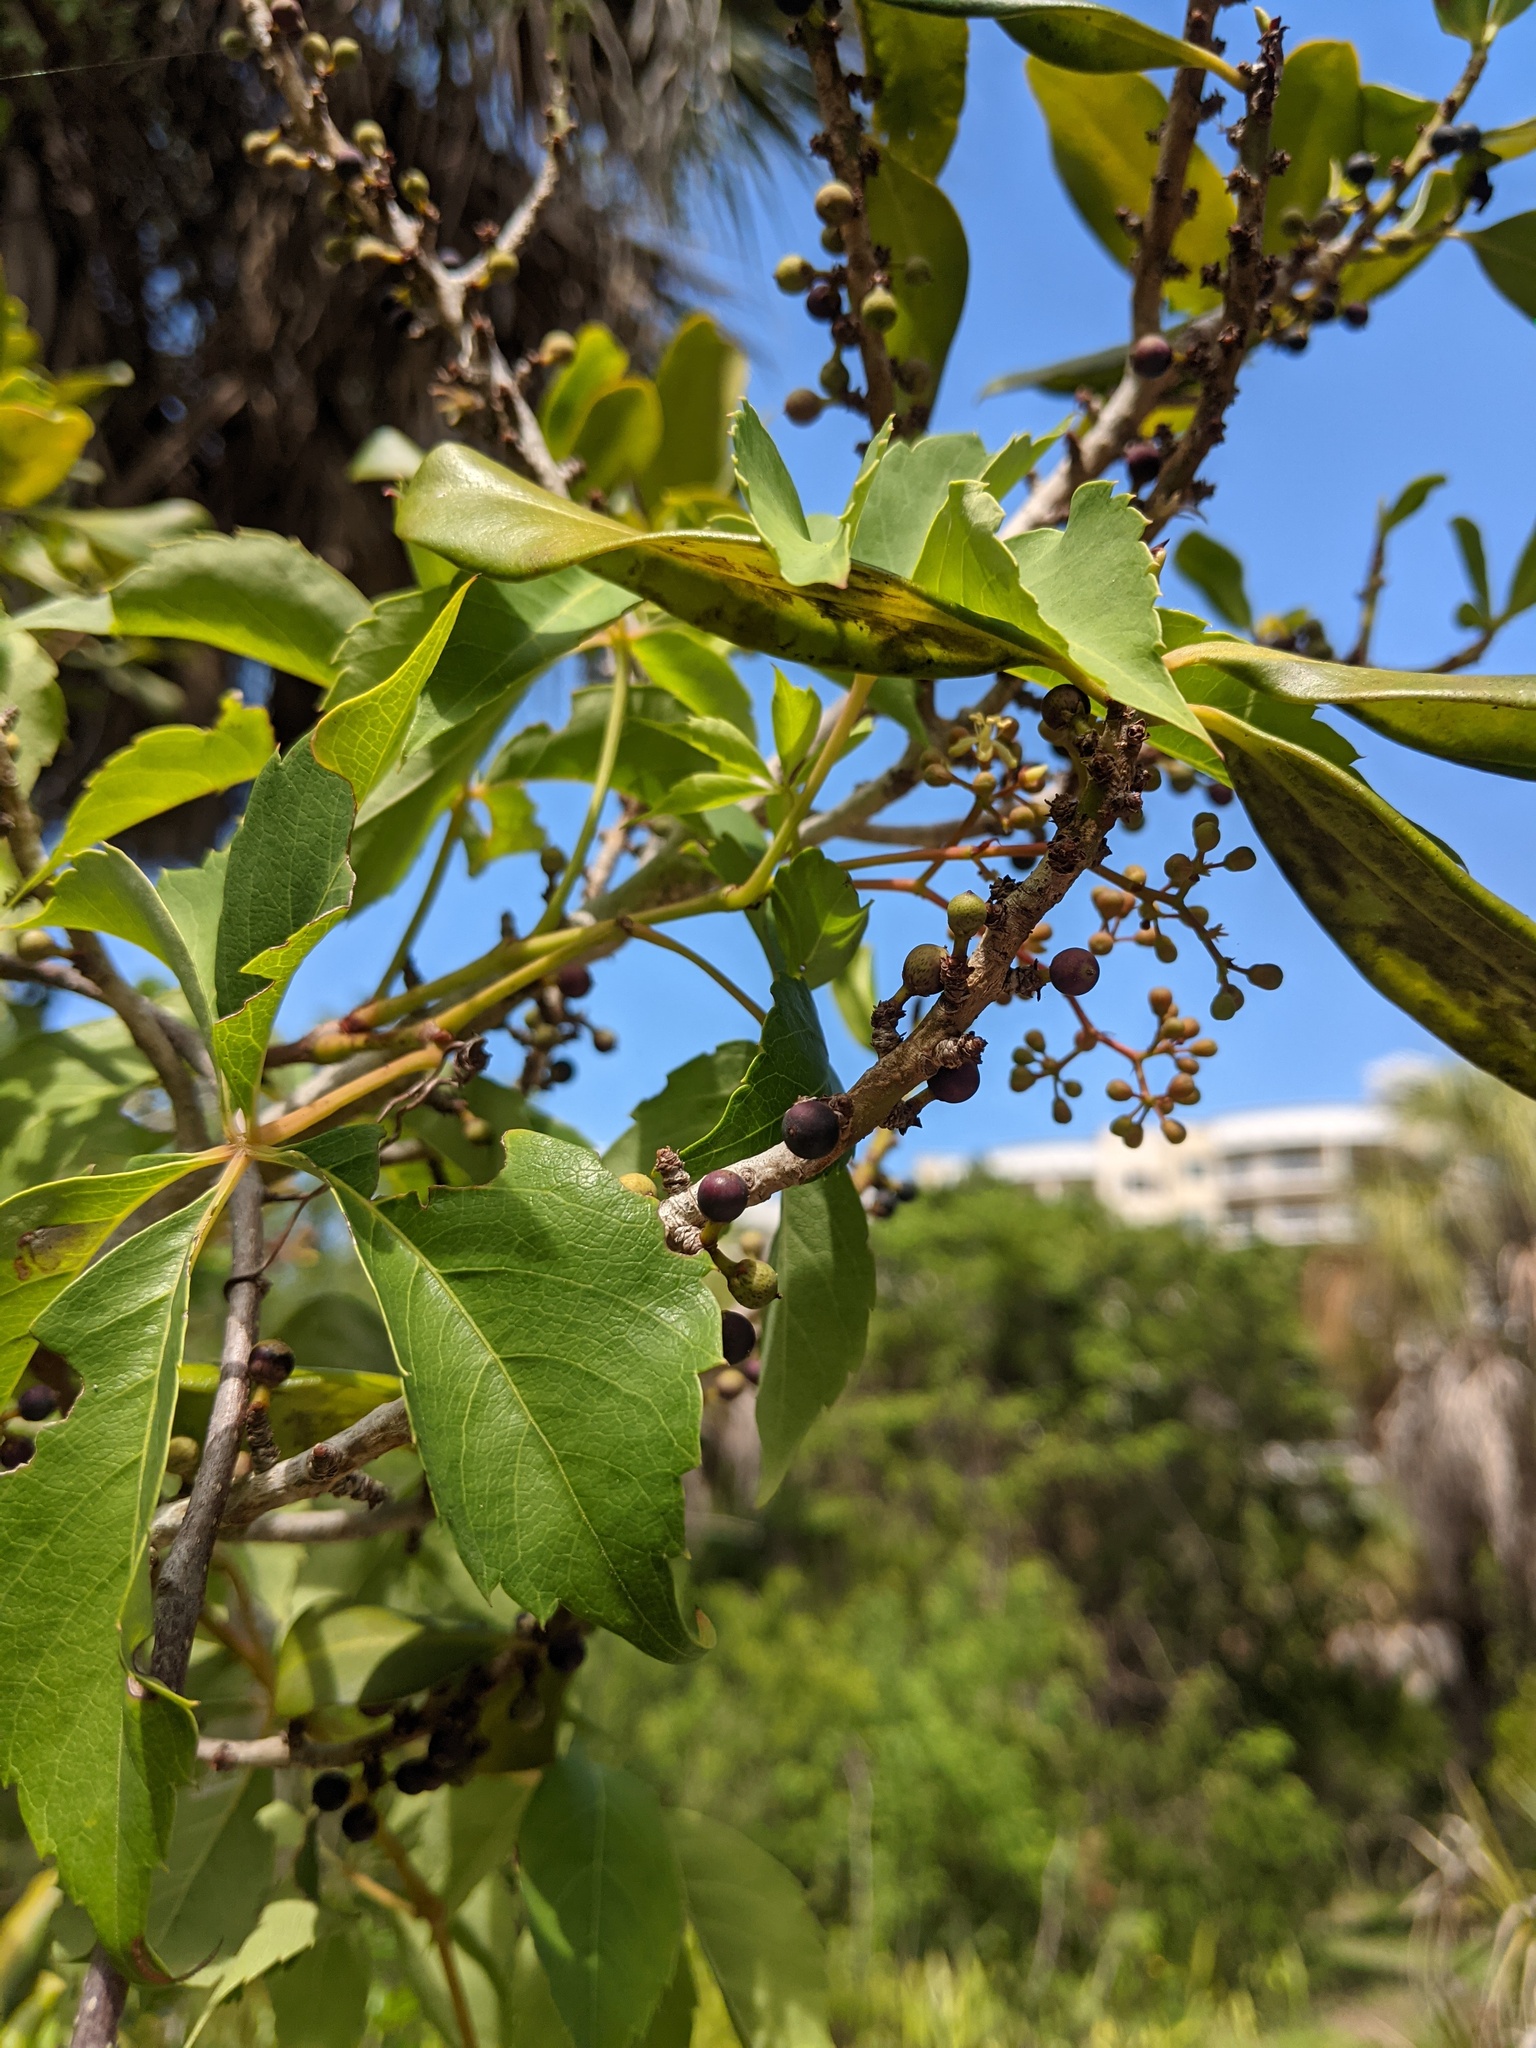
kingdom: Plantae
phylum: Tracheophyta
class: Magnoliopsida
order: Ericales
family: Primulaceae
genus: Myrsine
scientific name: Myrsine floridana
